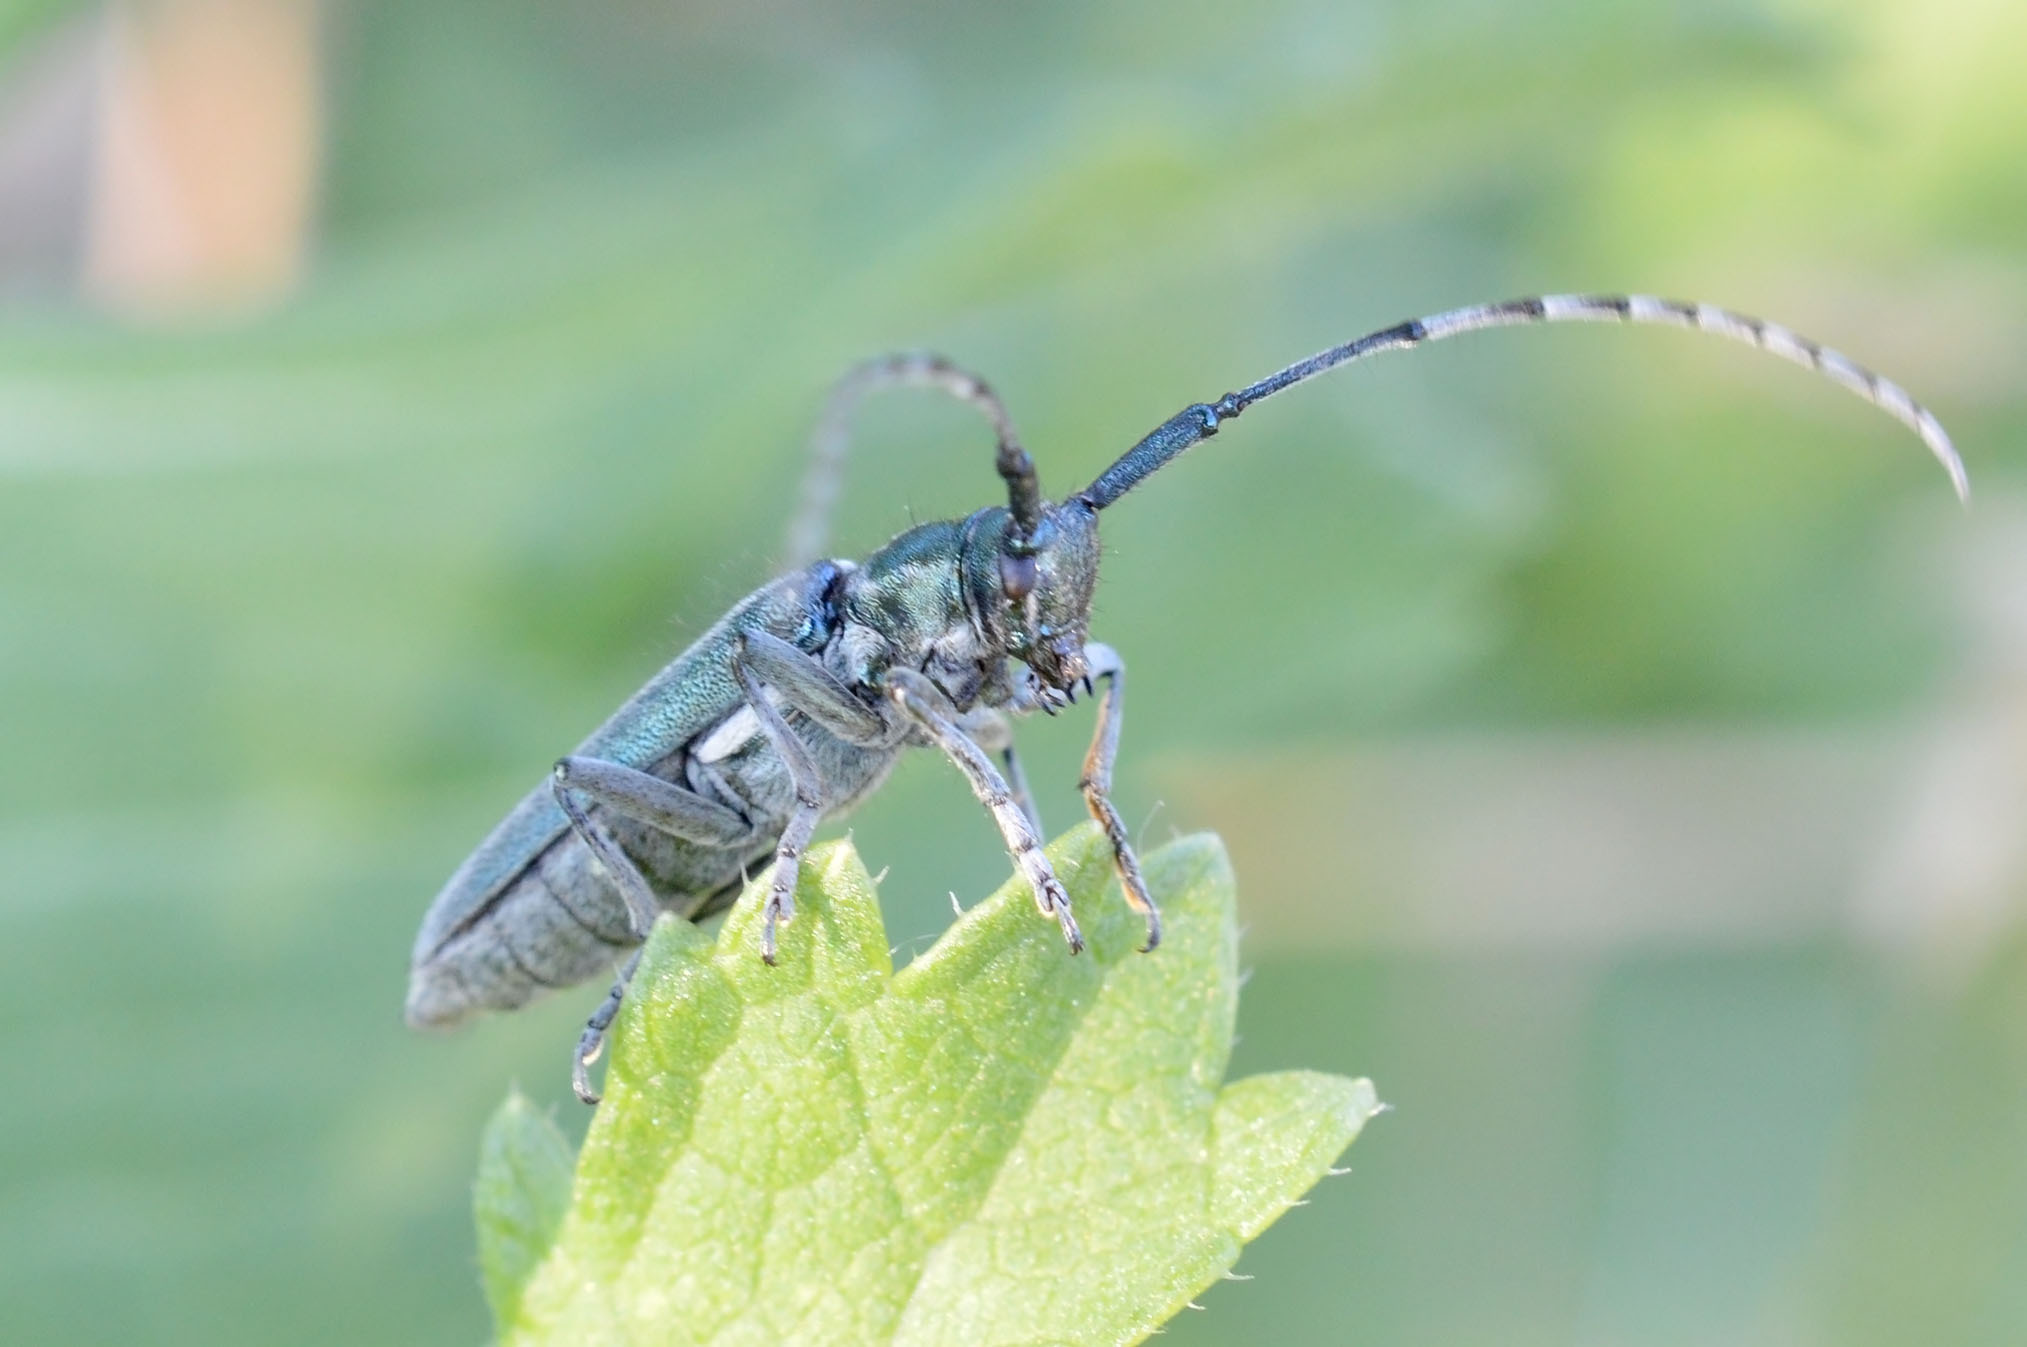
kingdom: Animalia
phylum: Arthropoda
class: Insecta
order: Coleoptera
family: Cerambycidae
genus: Agapanthia
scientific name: Agapanthia osmanlis
